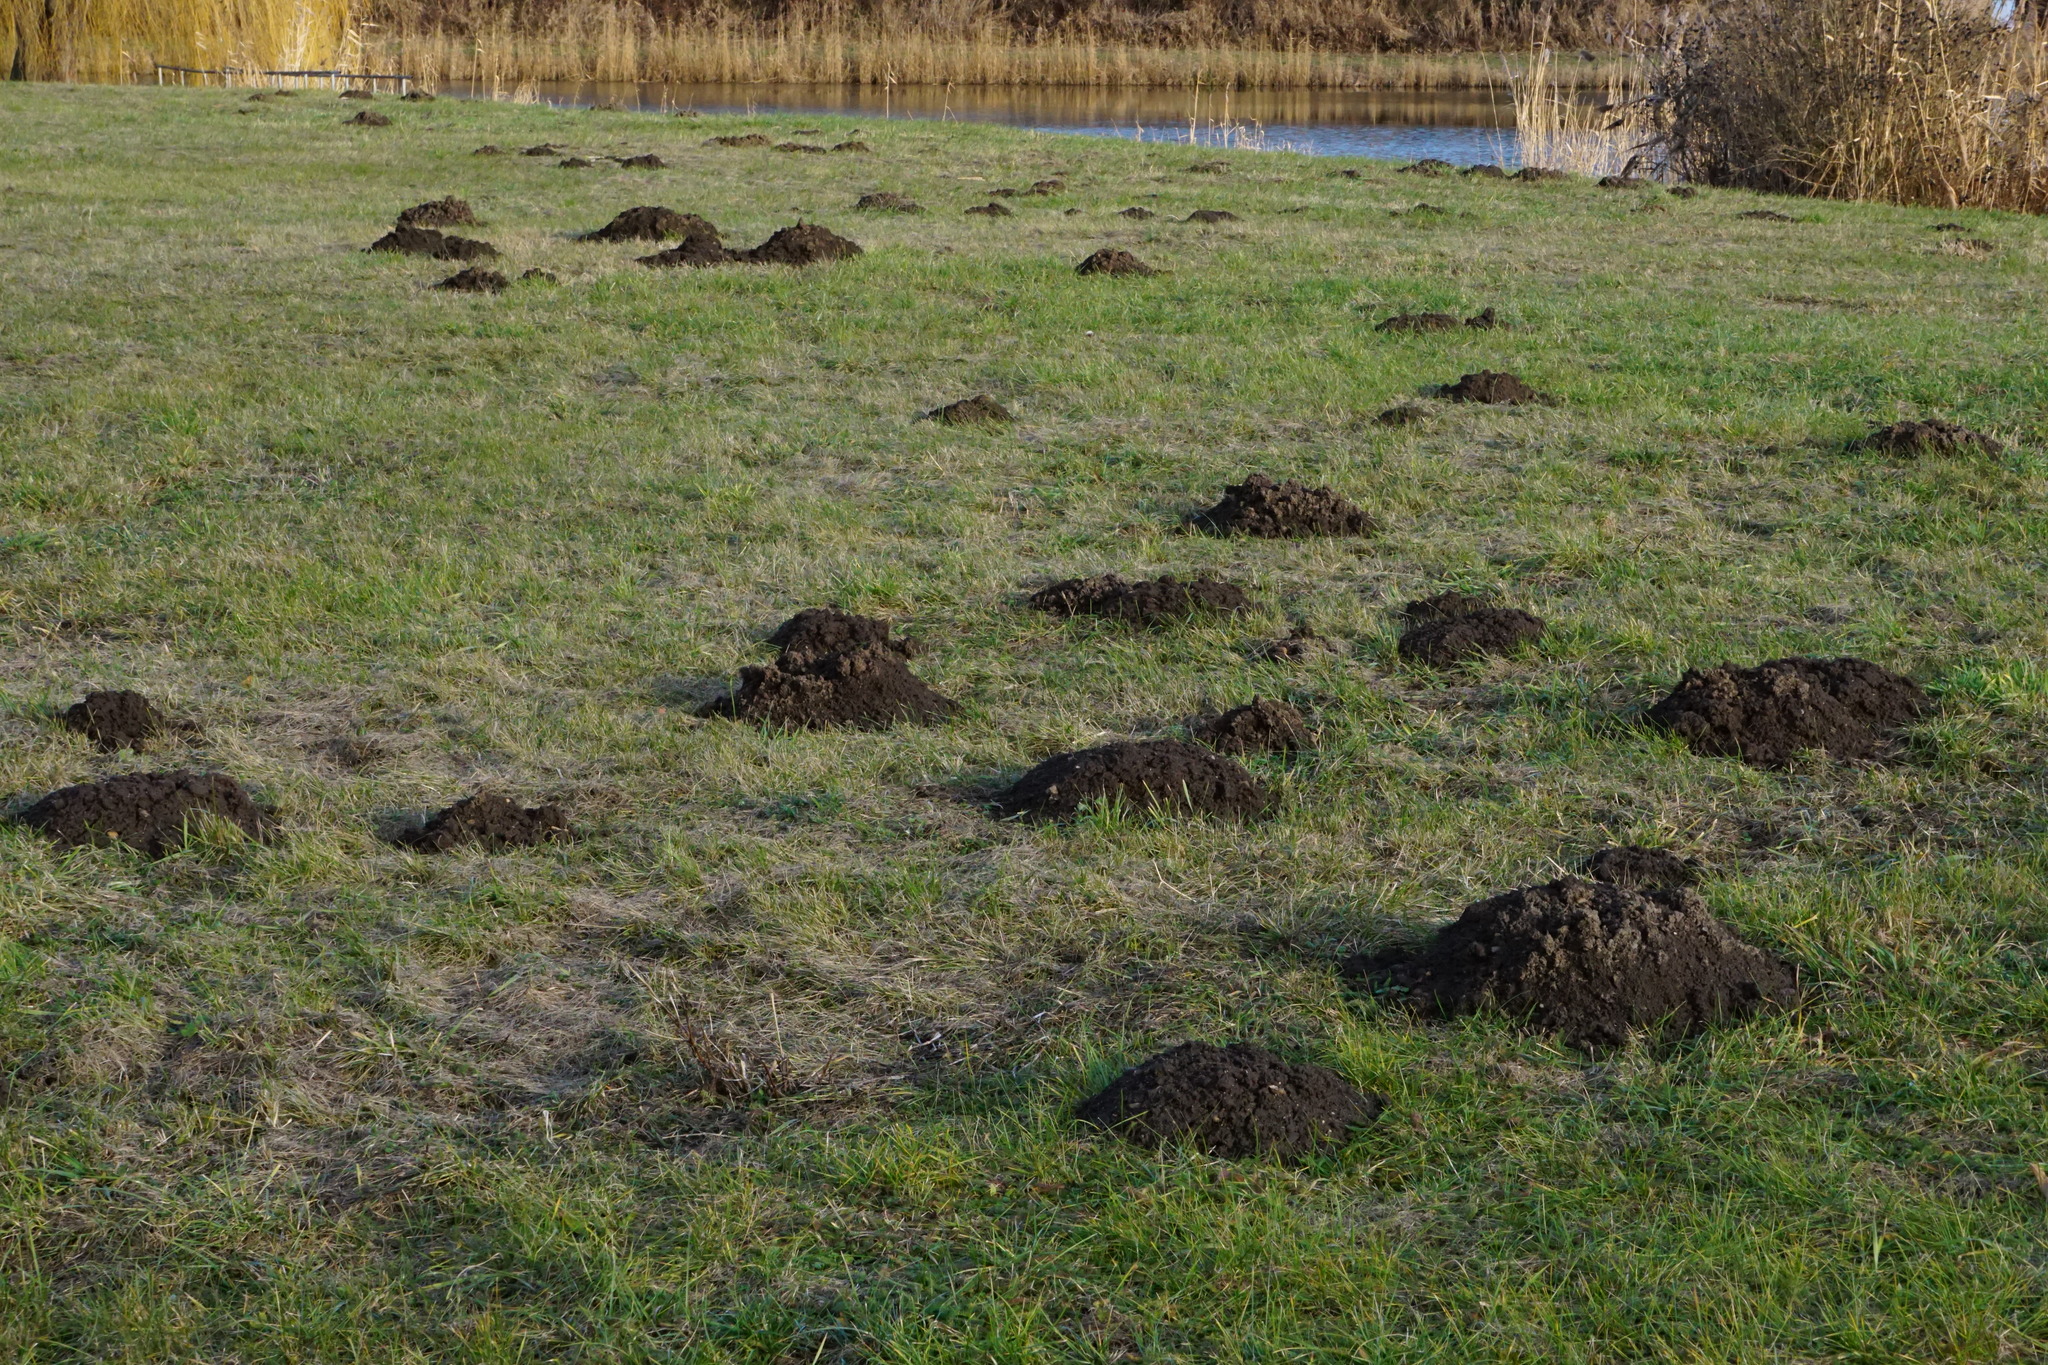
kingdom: Animalia
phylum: Chordata
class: Mammalia
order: Soricomorpha
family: Talpidae
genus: Talpa
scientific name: Talpa europaea
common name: European mole
